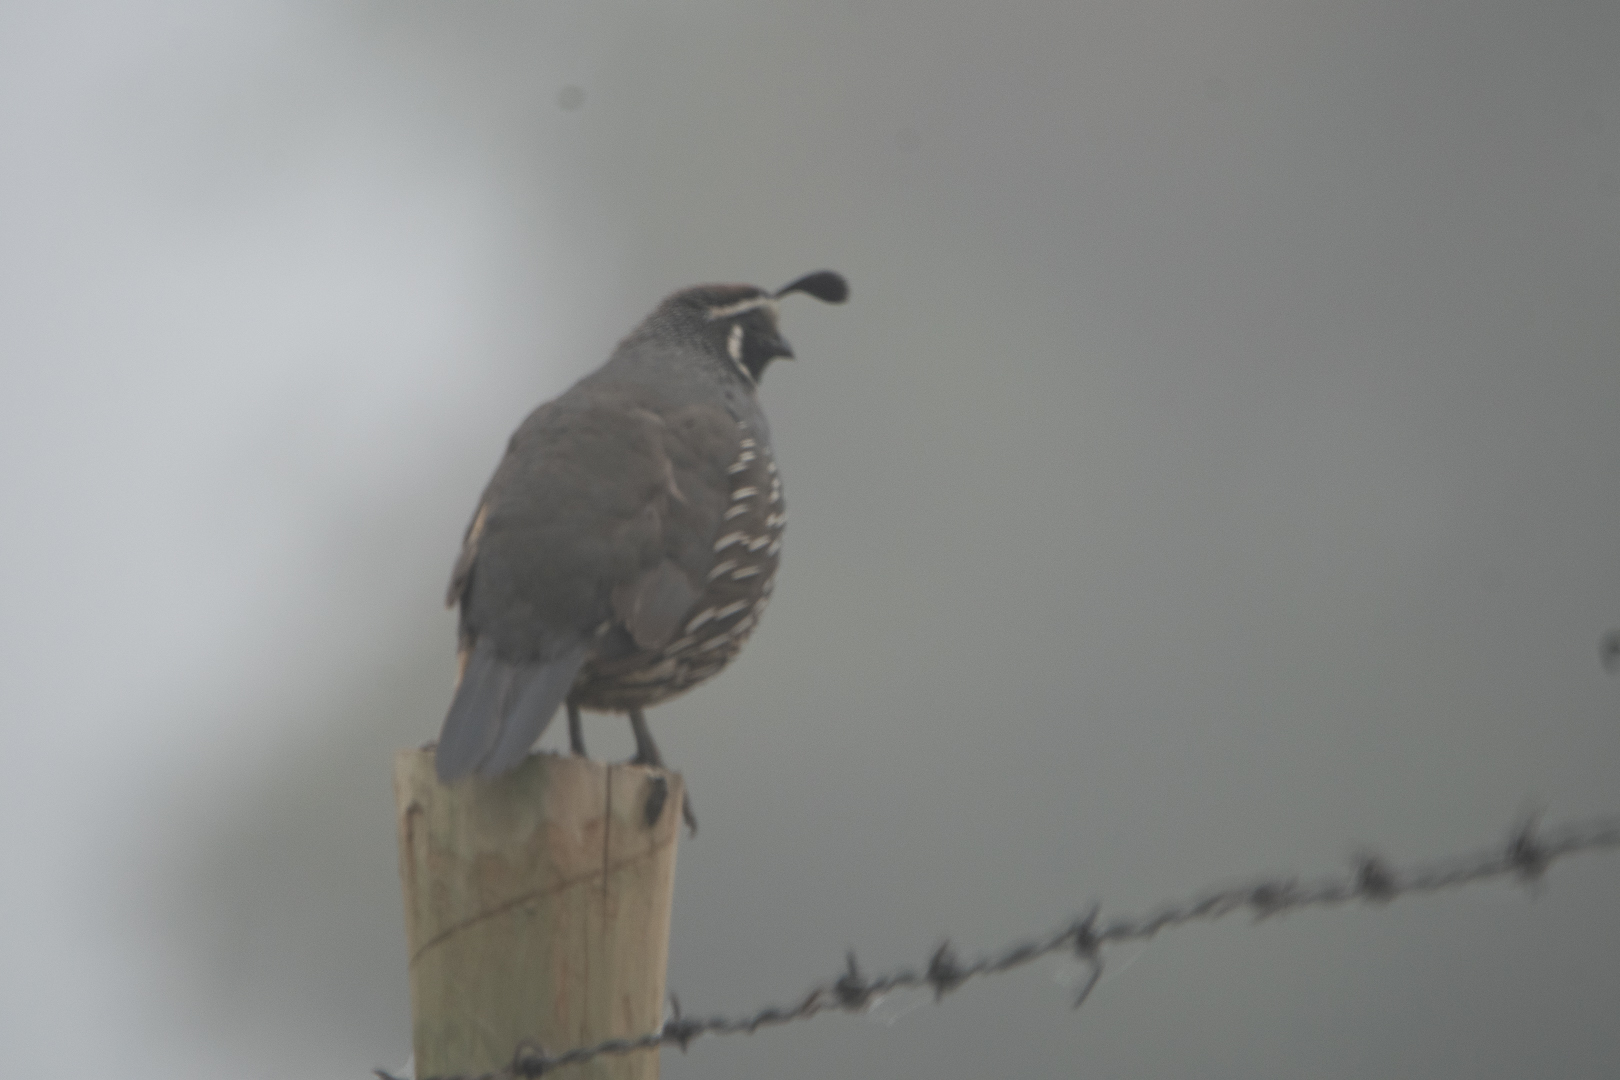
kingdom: Animalia
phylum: Chordata
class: Aves
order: Galliformes
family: Odontophoridae
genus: Callipepla
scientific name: Callipepla californica
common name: California quail
